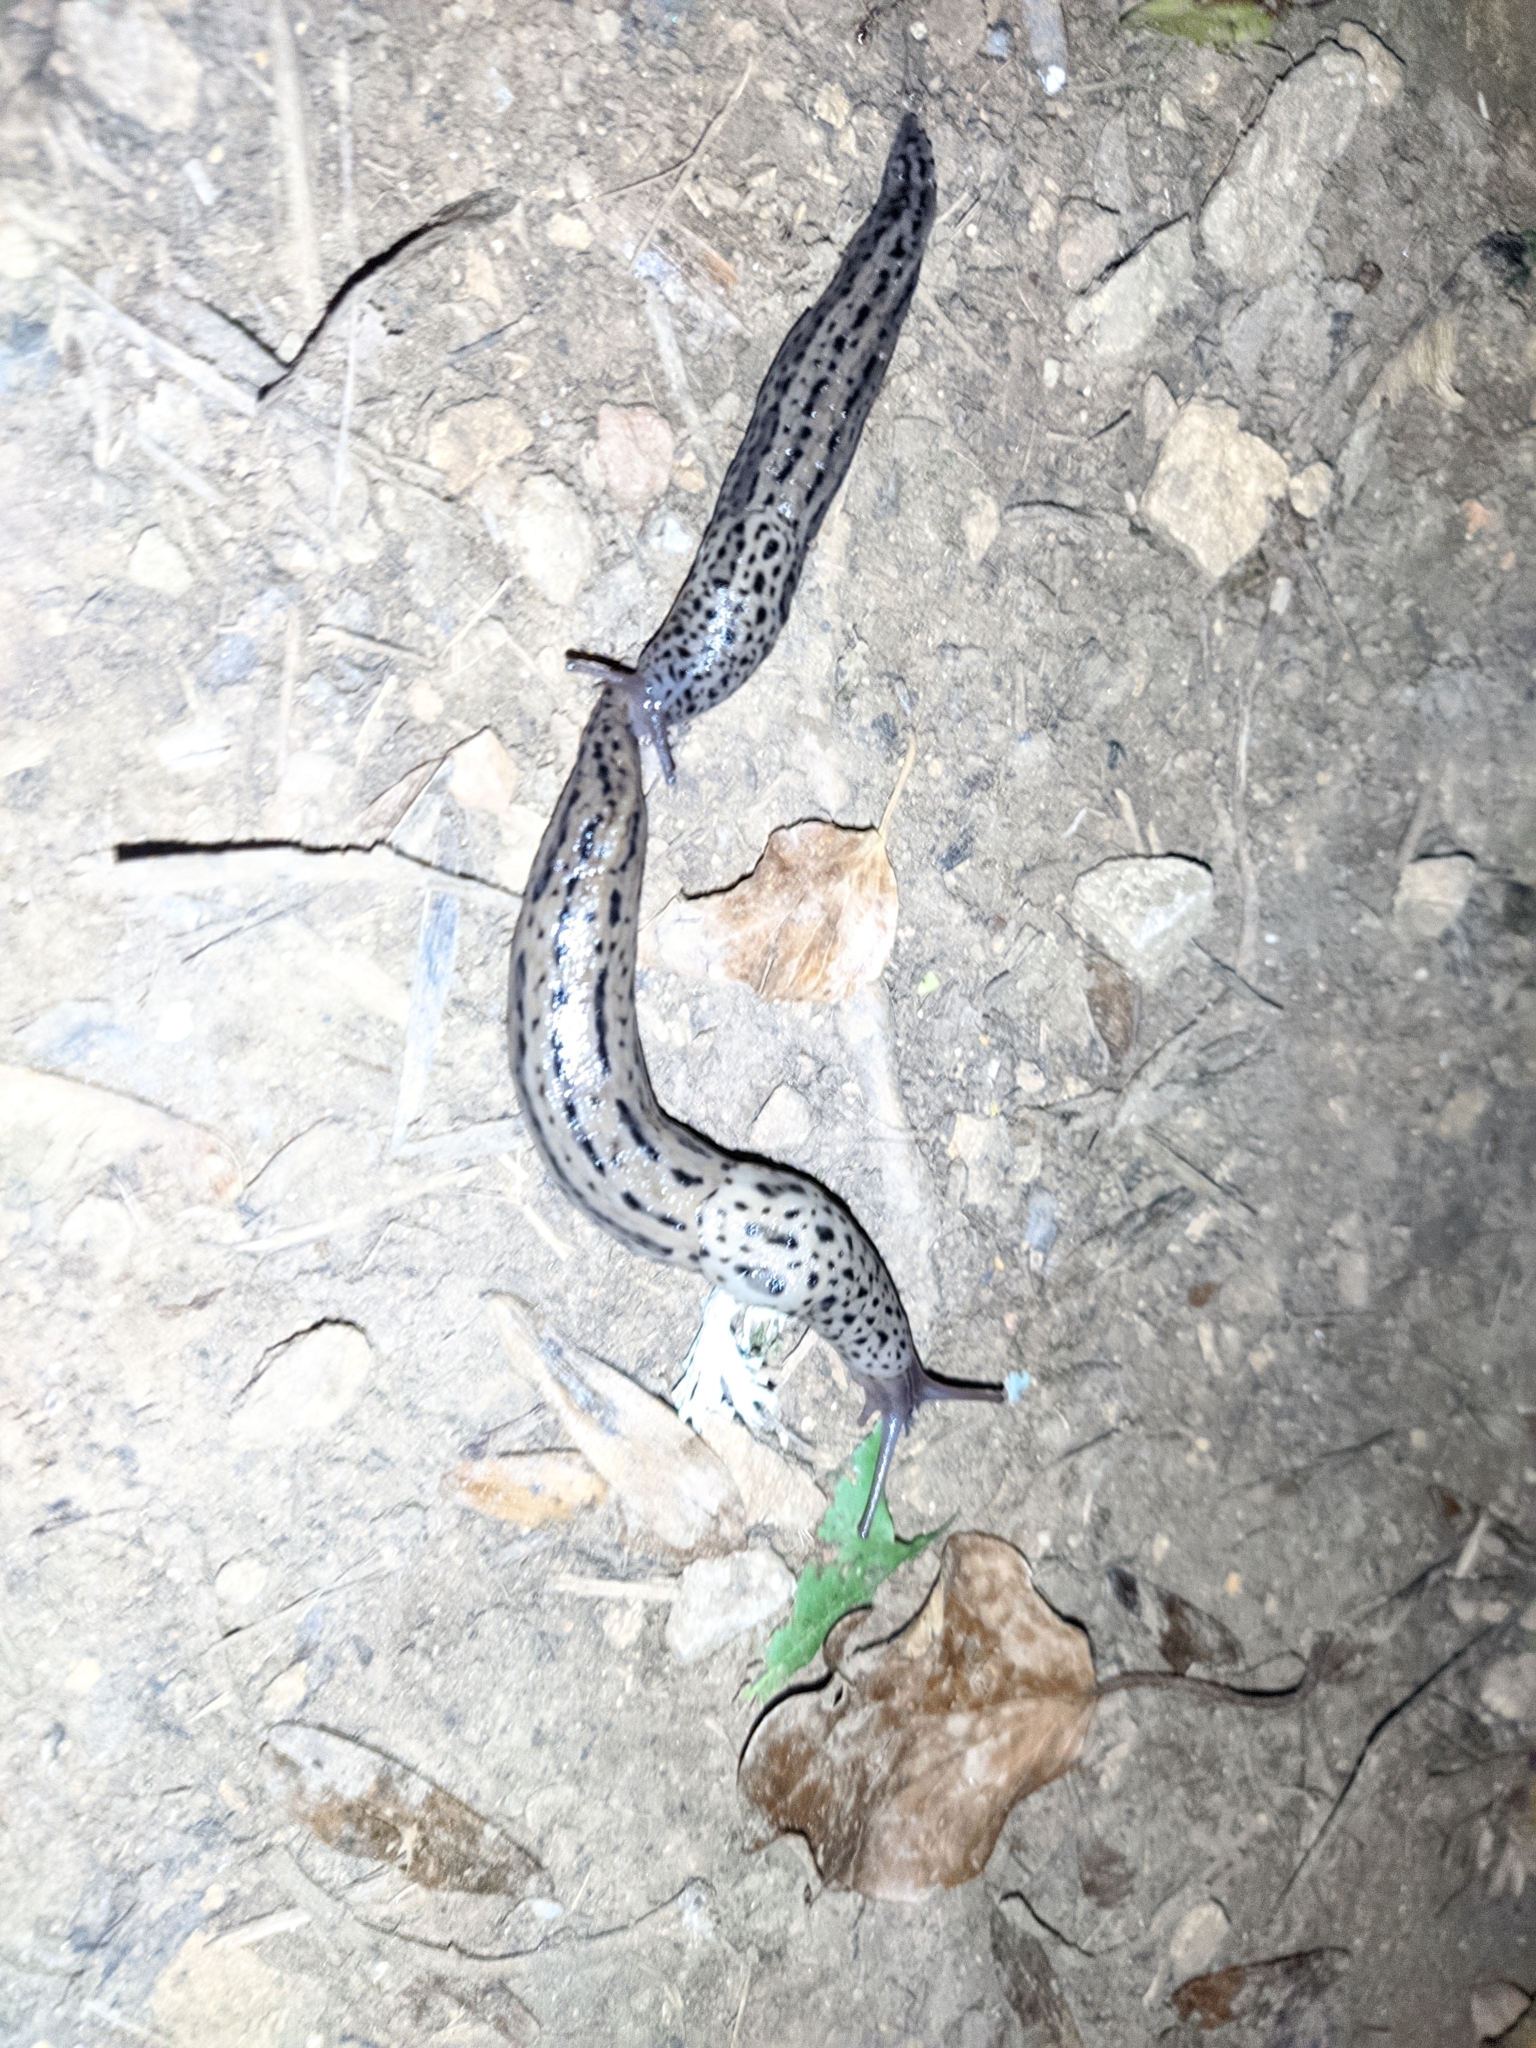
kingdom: Animalia
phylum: Mollusca
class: Gastropoda
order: Stylommatophora
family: Limacidae
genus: Limax
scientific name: Limax maximus
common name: Great grey slug
